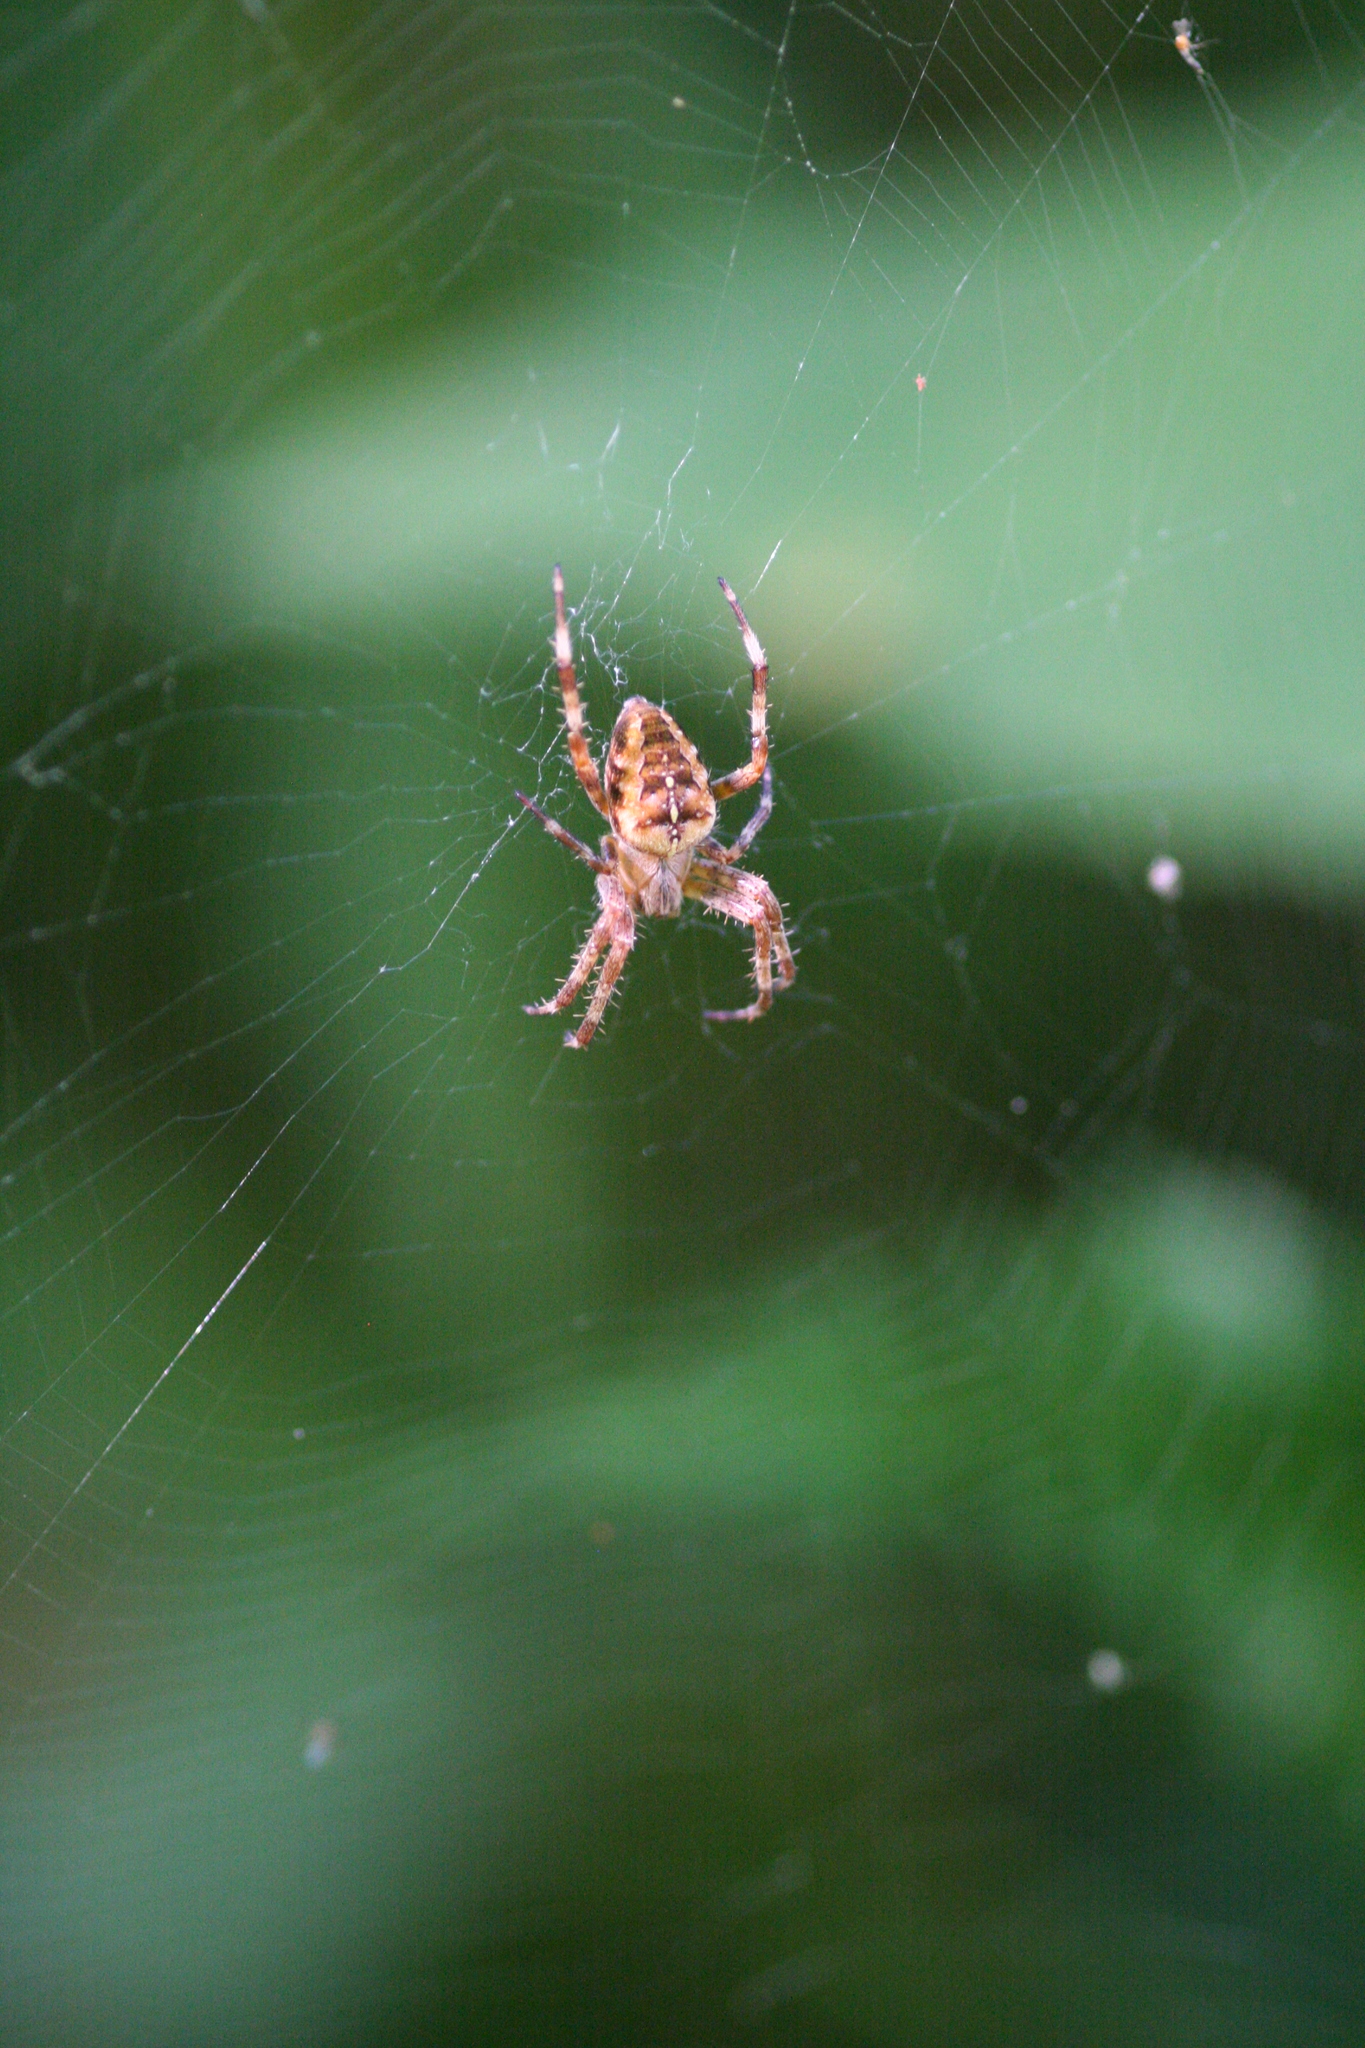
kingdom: Animalia
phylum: Arthropoda
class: Arachnida
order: Araneae
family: Araneidae
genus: Araneus
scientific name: Araneus diadematus
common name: Cross orbweaver
